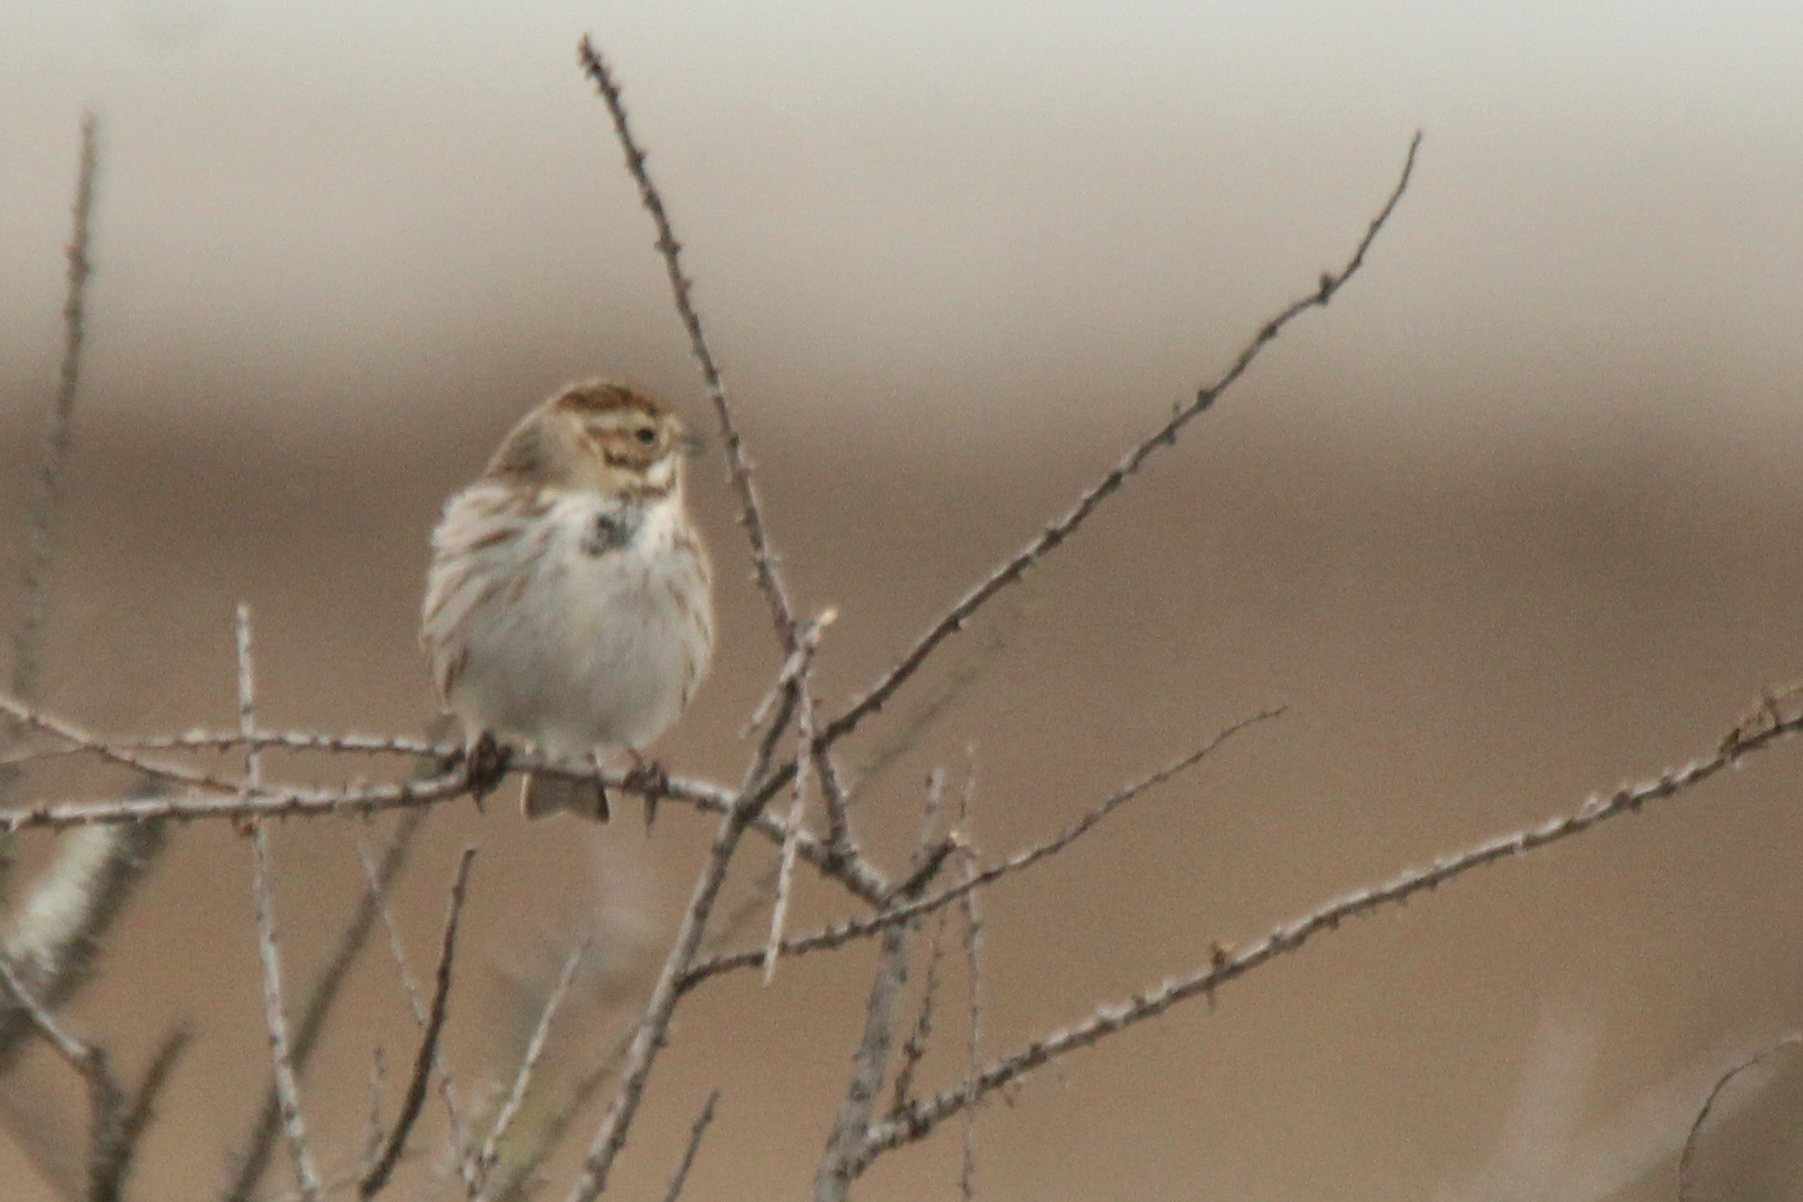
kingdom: Animalia
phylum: Chordata
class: Aves
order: Passeriformes
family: Emberizidae
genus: Emberiza
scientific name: Emberiza schoeniclus
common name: Reed bunting
